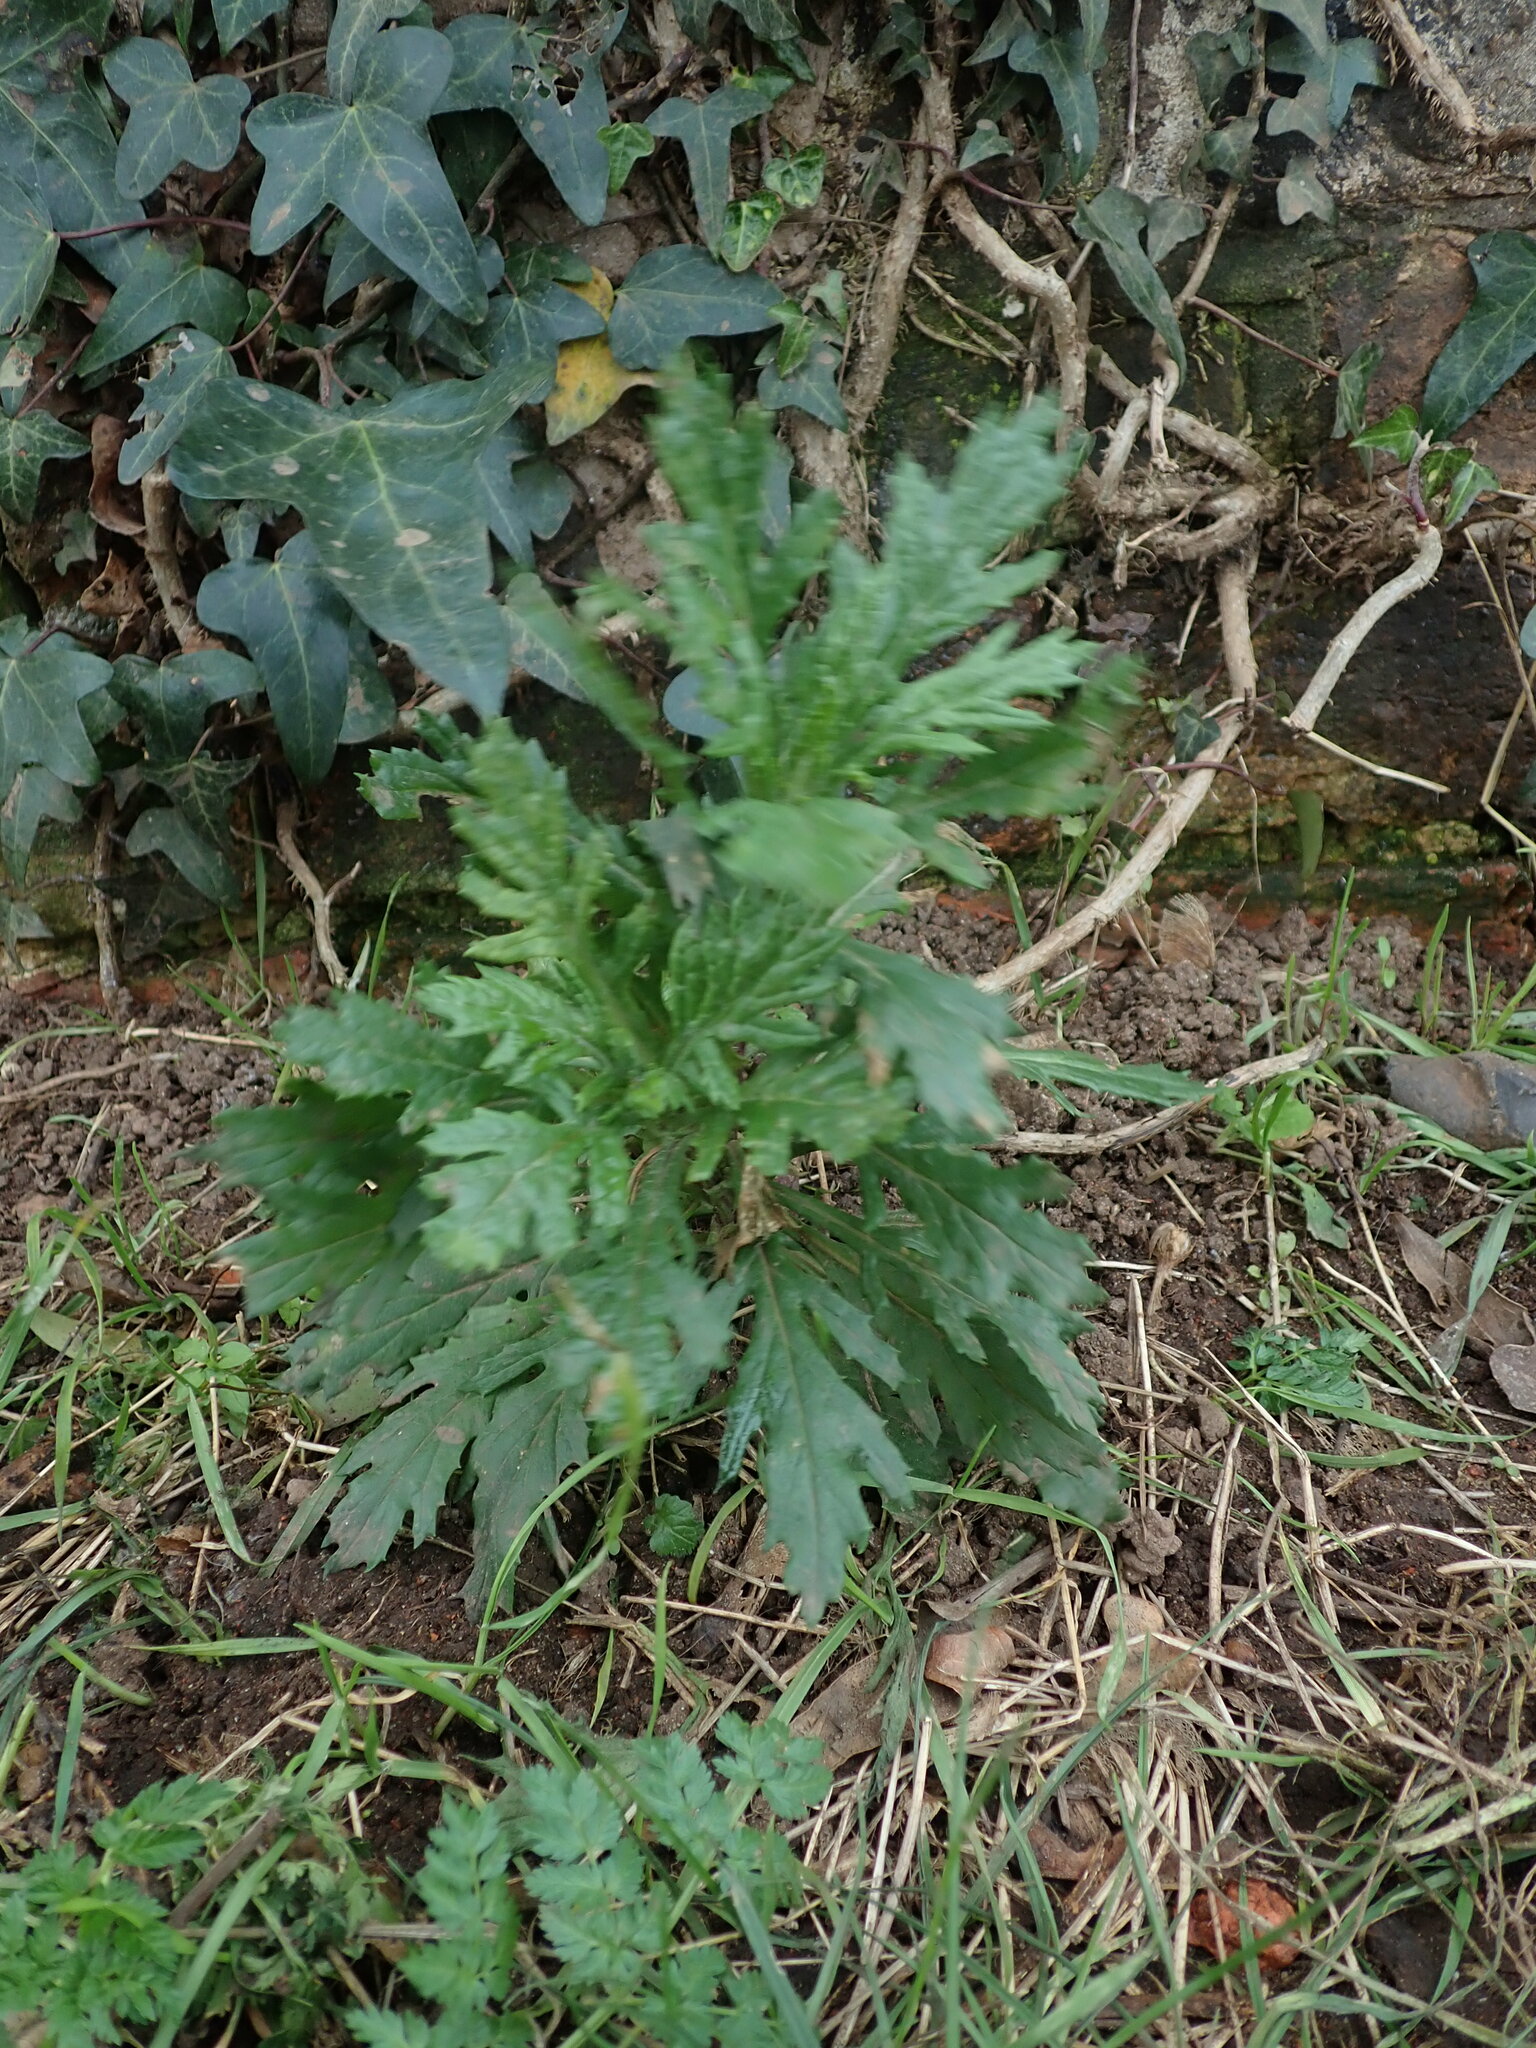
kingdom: Plantae
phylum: Tracheophyta
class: Magnoliopsida
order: Asterales
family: Asteraceae
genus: Senecio
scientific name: Senecio squalidus
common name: Oxford ragwort
